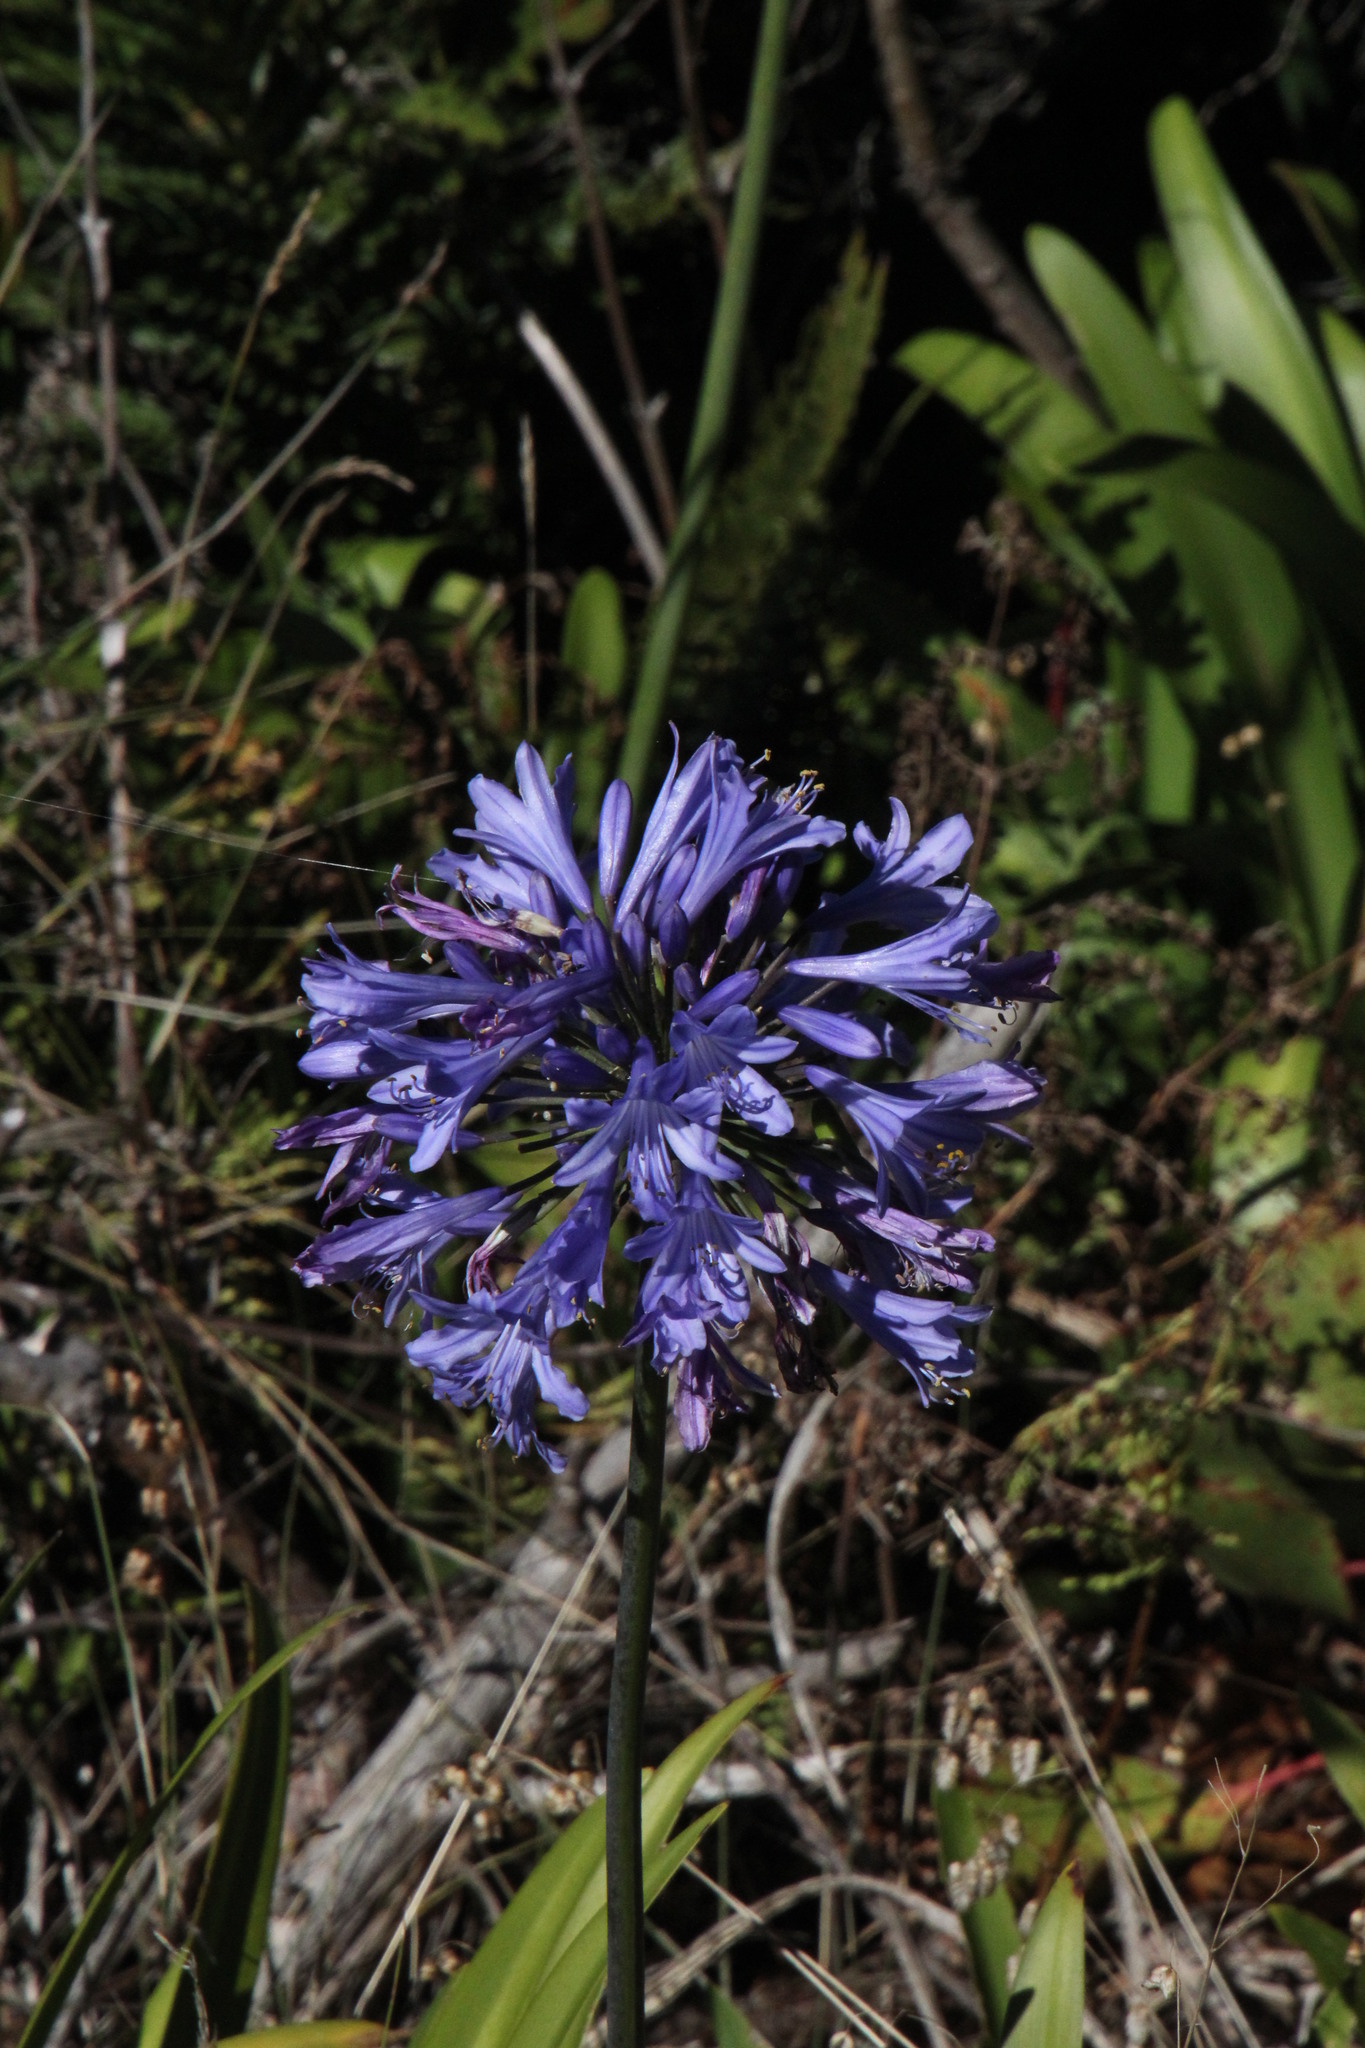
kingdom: Plantae
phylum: Tracheophyta
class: Liliopsida
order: Asparagales
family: Amaryllidaceae
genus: Agapanthus
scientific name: Agapanthus praecox
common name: African-lily
